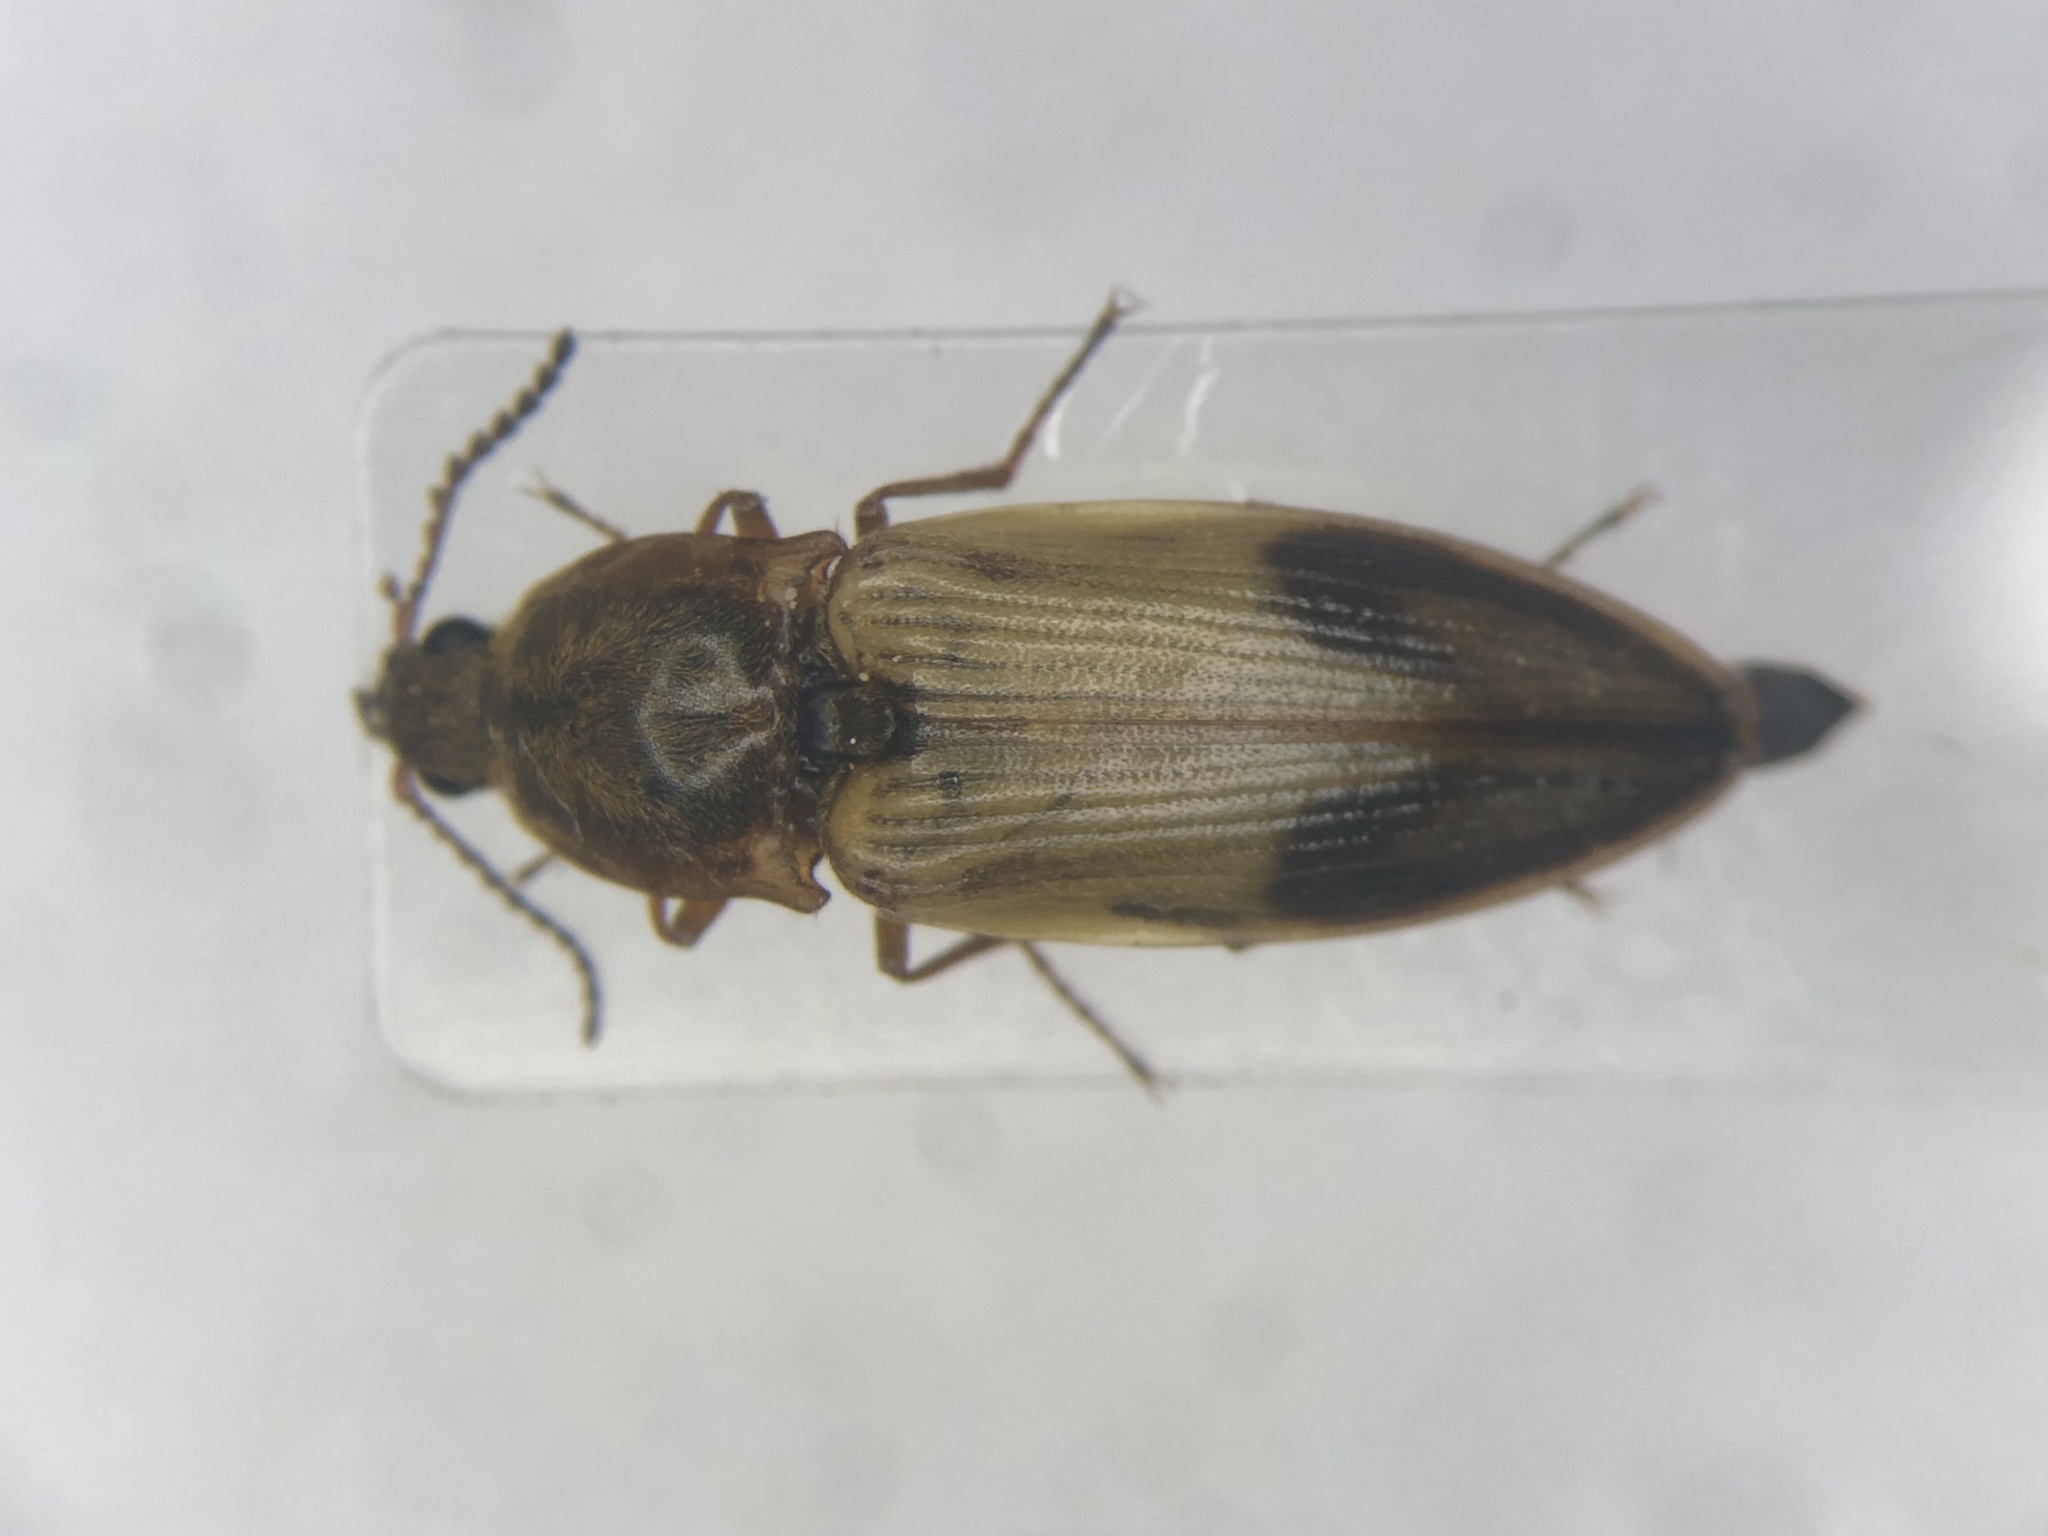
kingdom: Animalia
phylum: Arthropoda
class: Insecta
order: Coleoptera
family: Elateridae
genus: Stropenron
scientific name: Stropenron hamata
